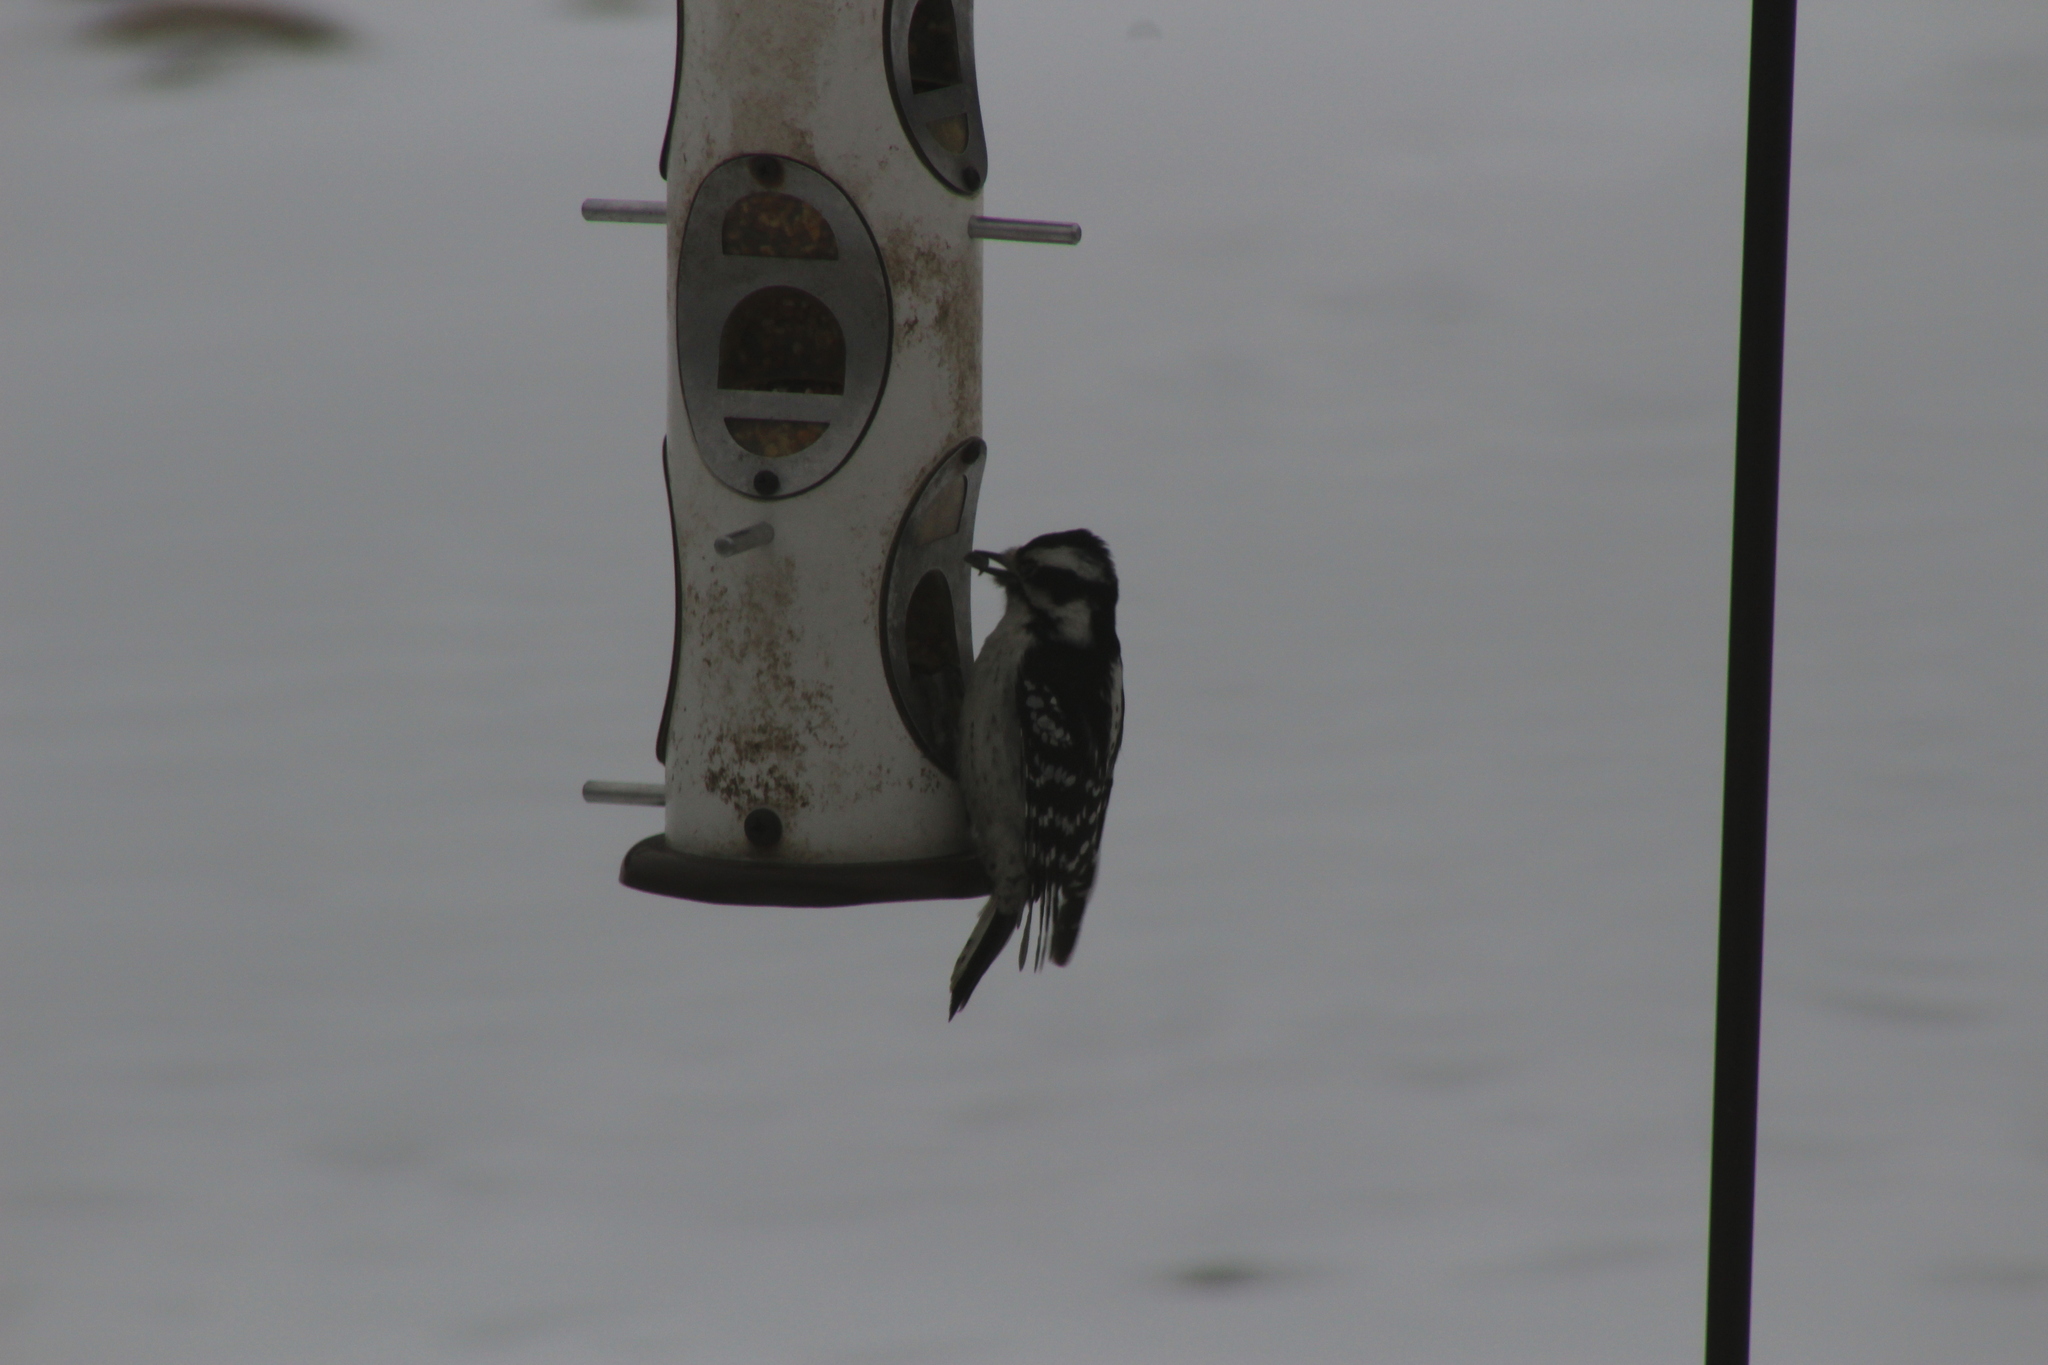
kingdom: Animalia
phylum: Chordata
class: Aves
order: Piciformes
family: Picidae
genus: Dryobates
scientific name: Dryobates pubescens
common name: Downy woodpecker
